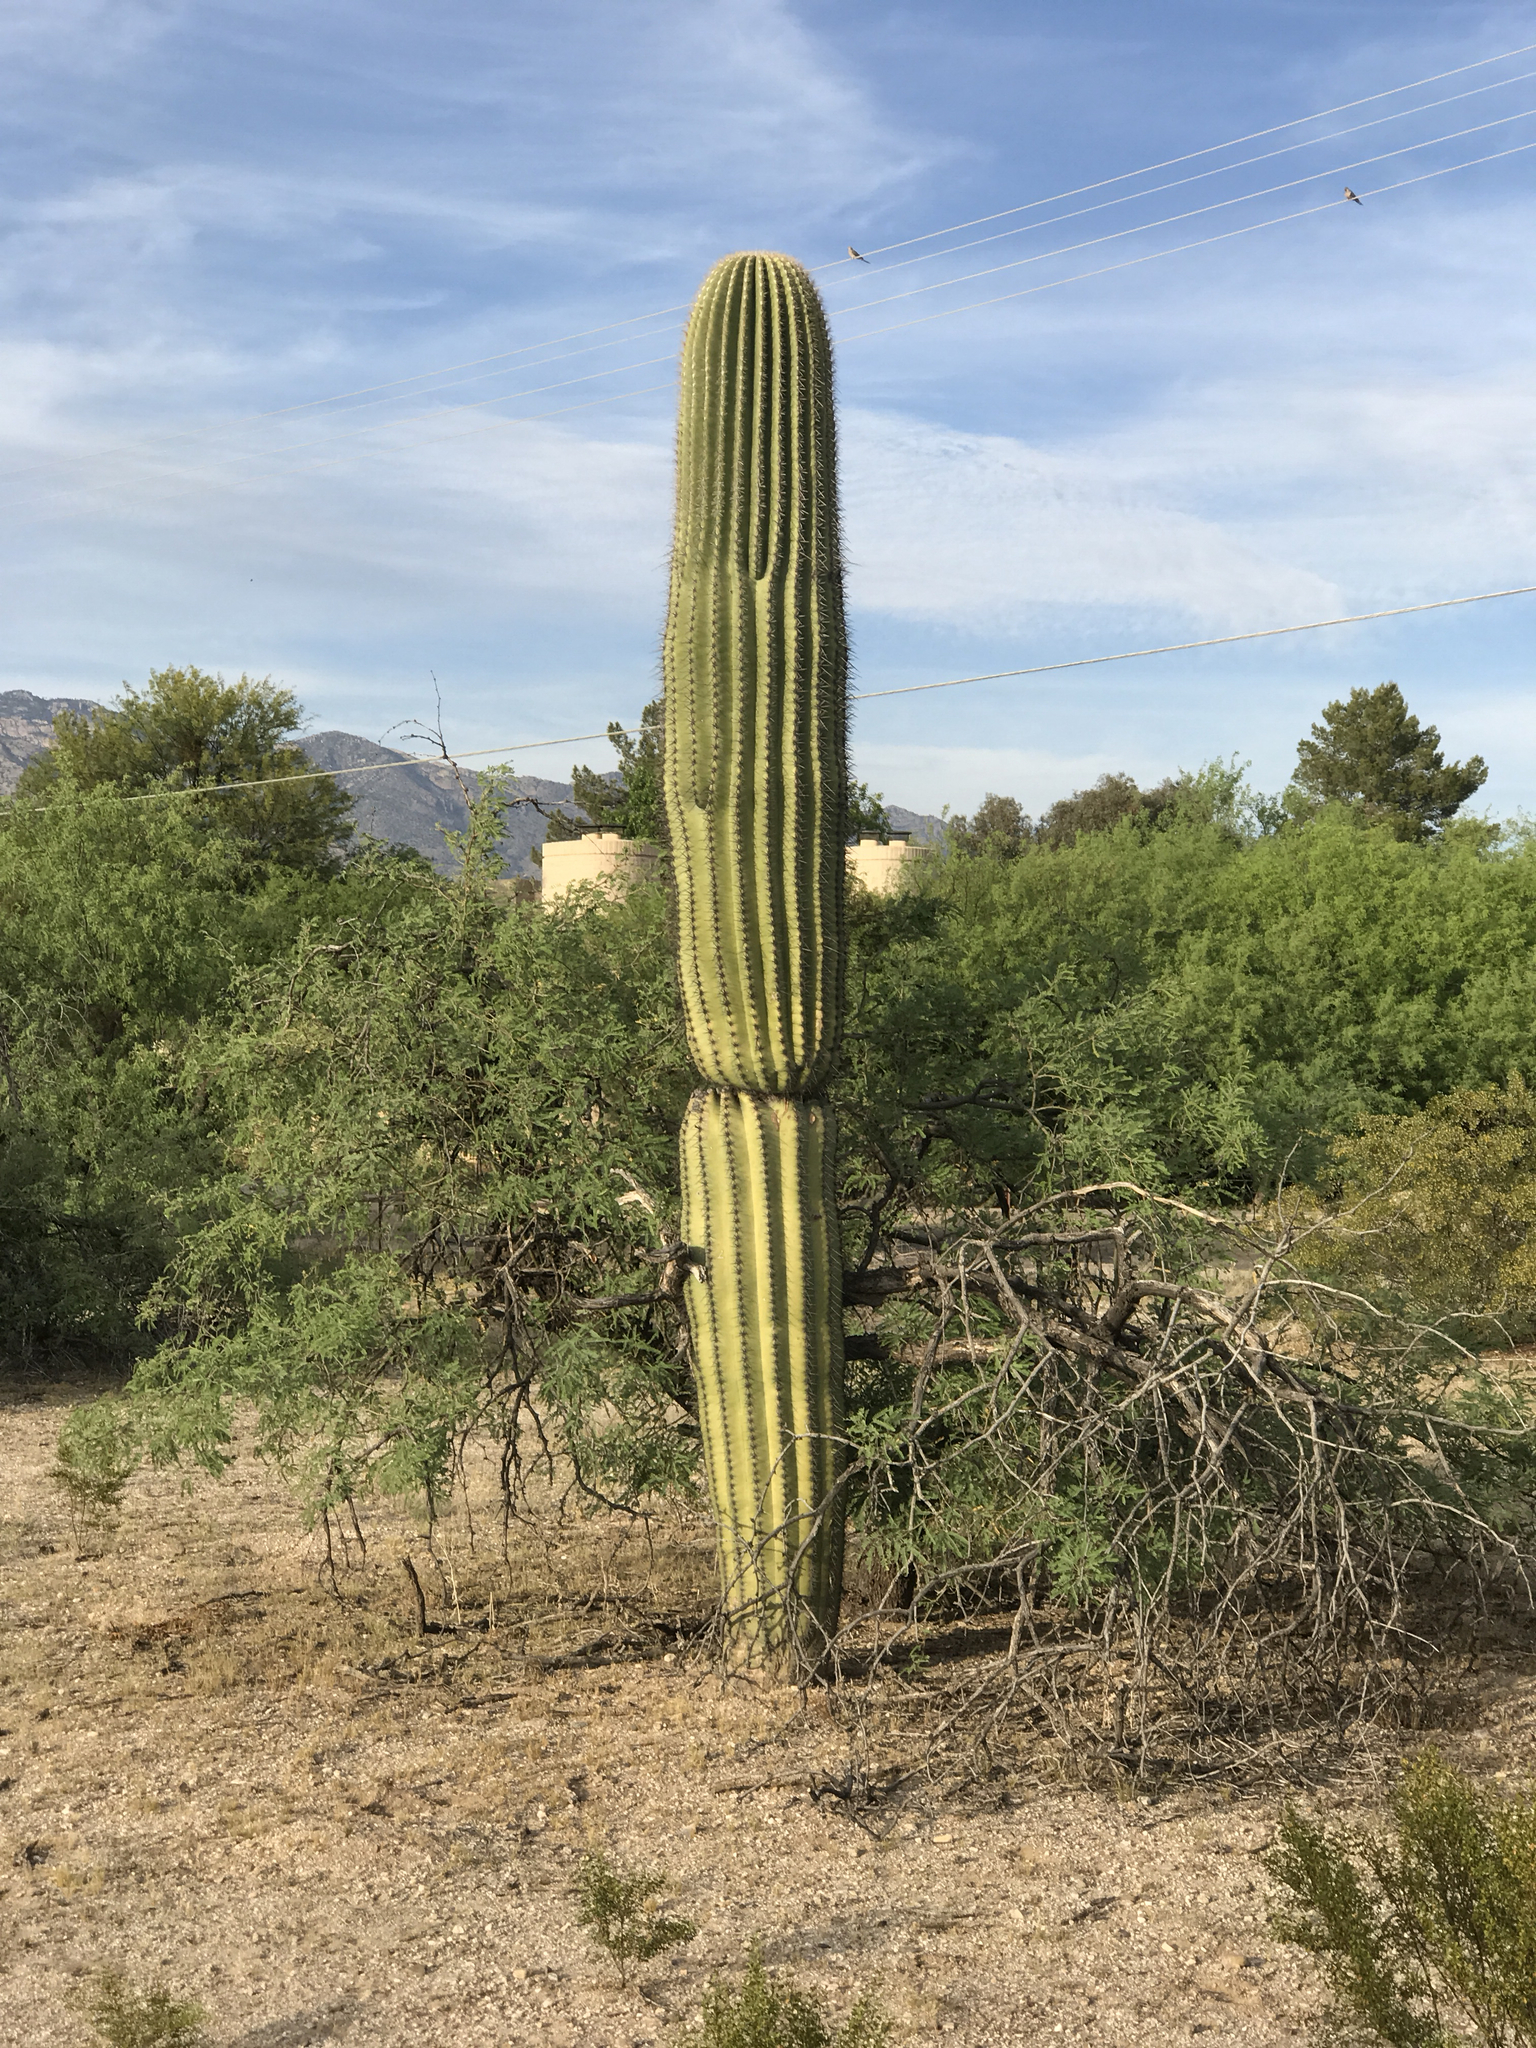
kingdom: Plantae
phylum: Tracheophyta
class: Magnoliopsida
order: Caryophyllales
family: Cactaceae
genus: Carnegiea
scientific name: Carnegiea gigantea
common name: Saguaro
